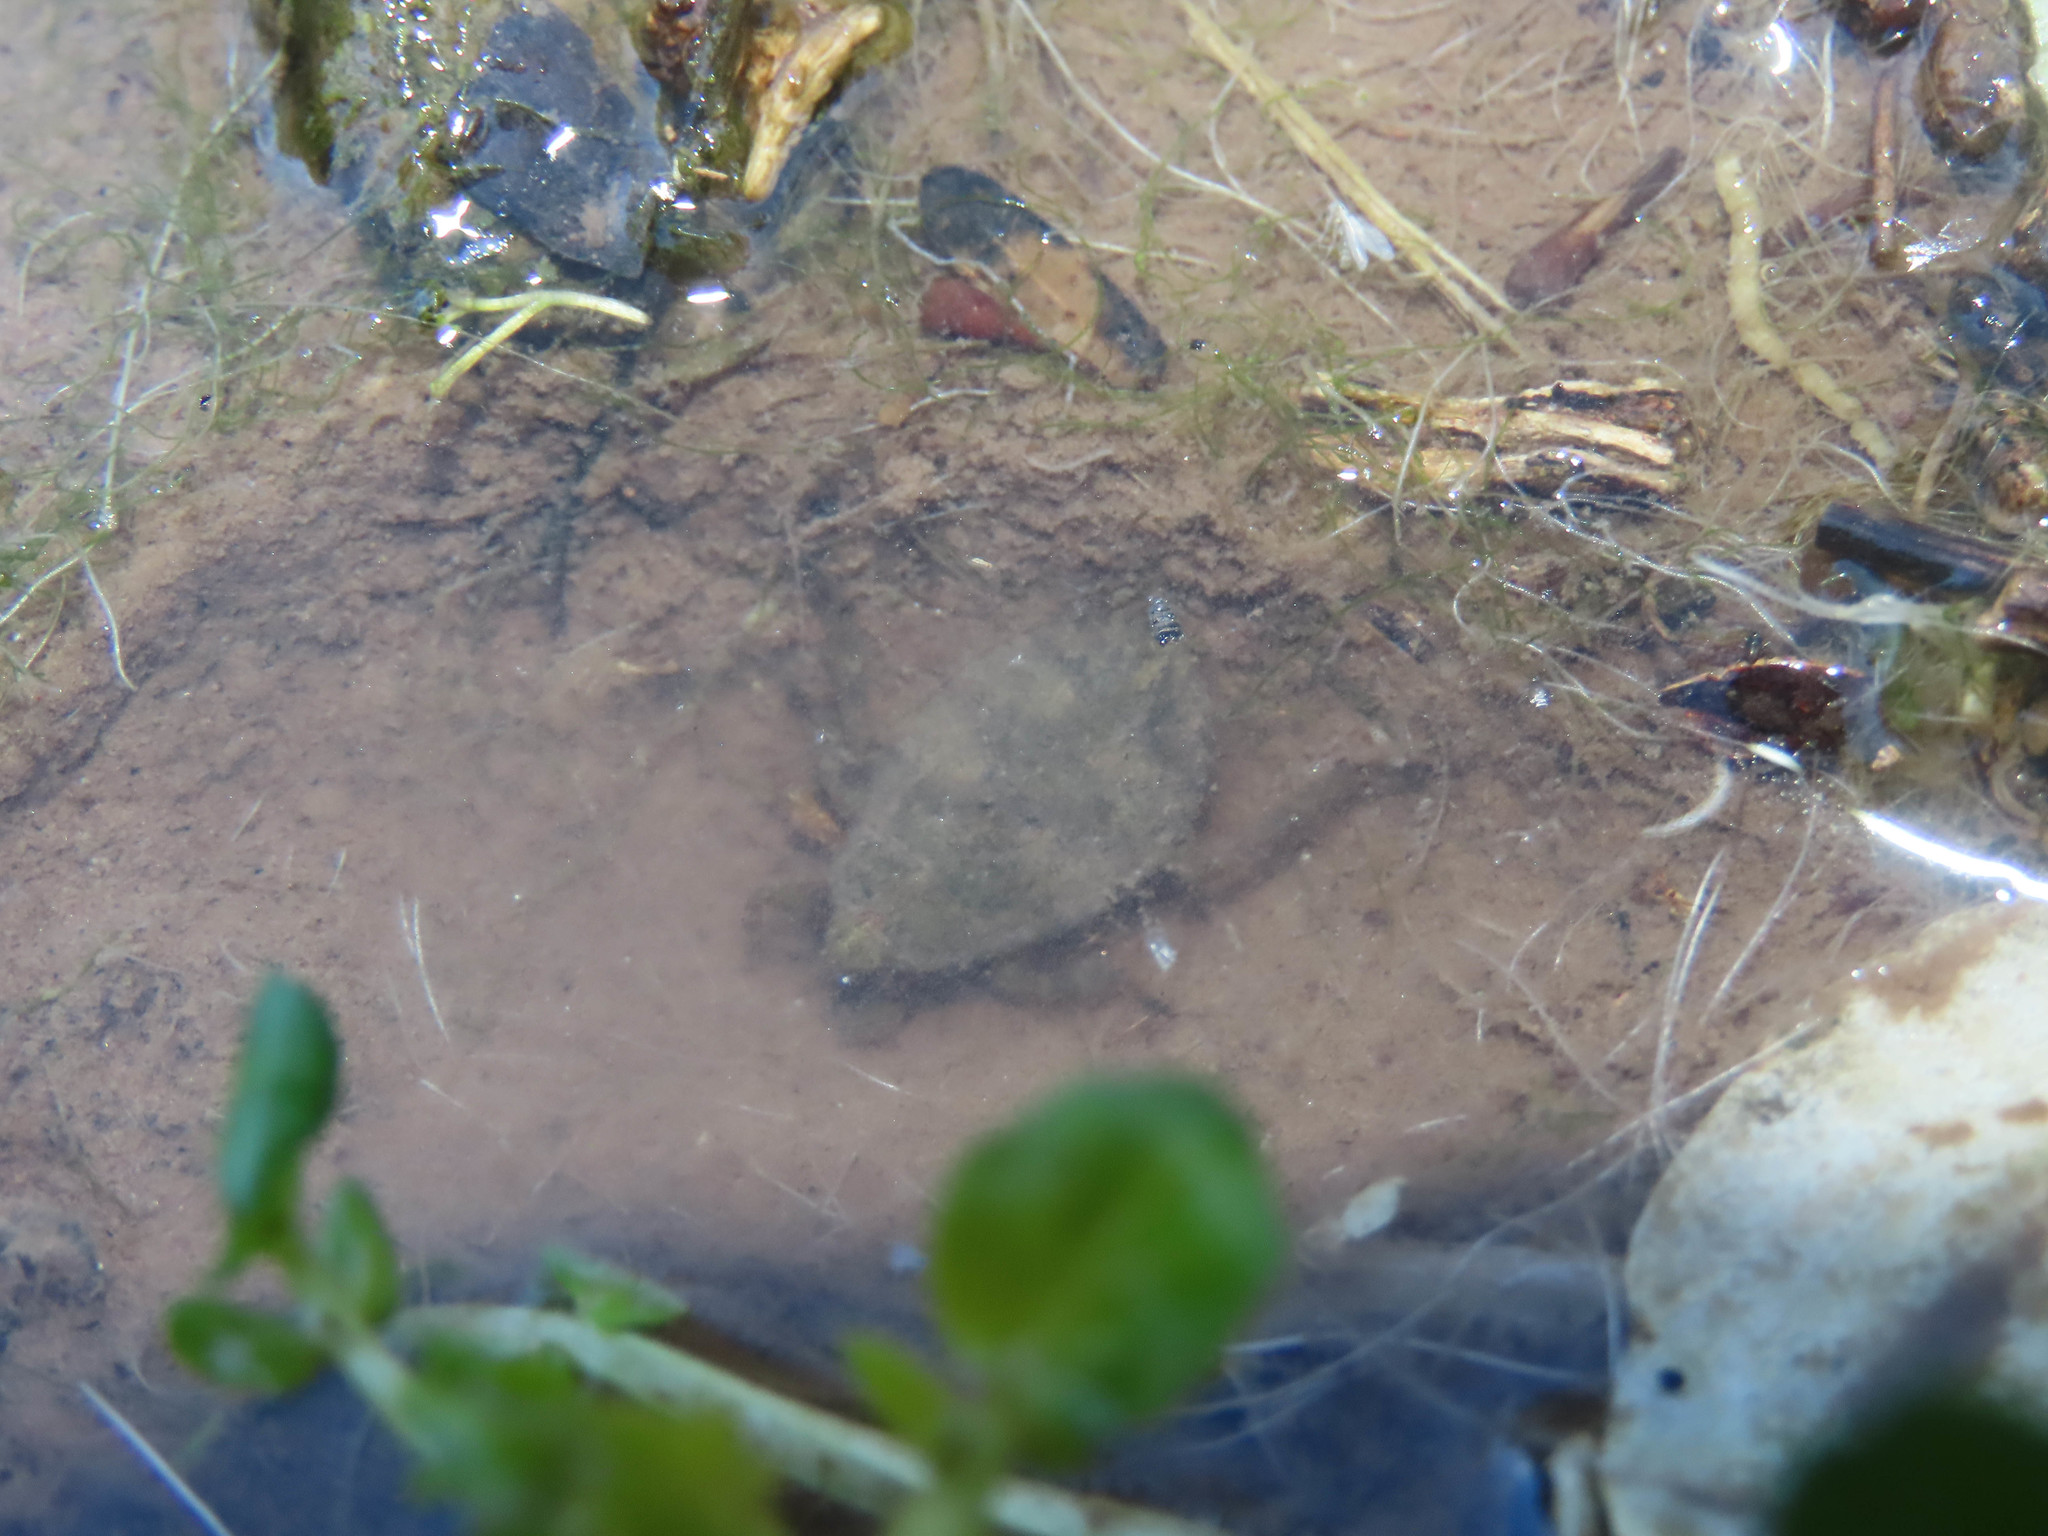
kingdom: Animalia
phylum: Arthropoda
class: Insecta
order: Hemiptera
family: Belostomatidae
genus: Abedus
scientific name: Abedus
